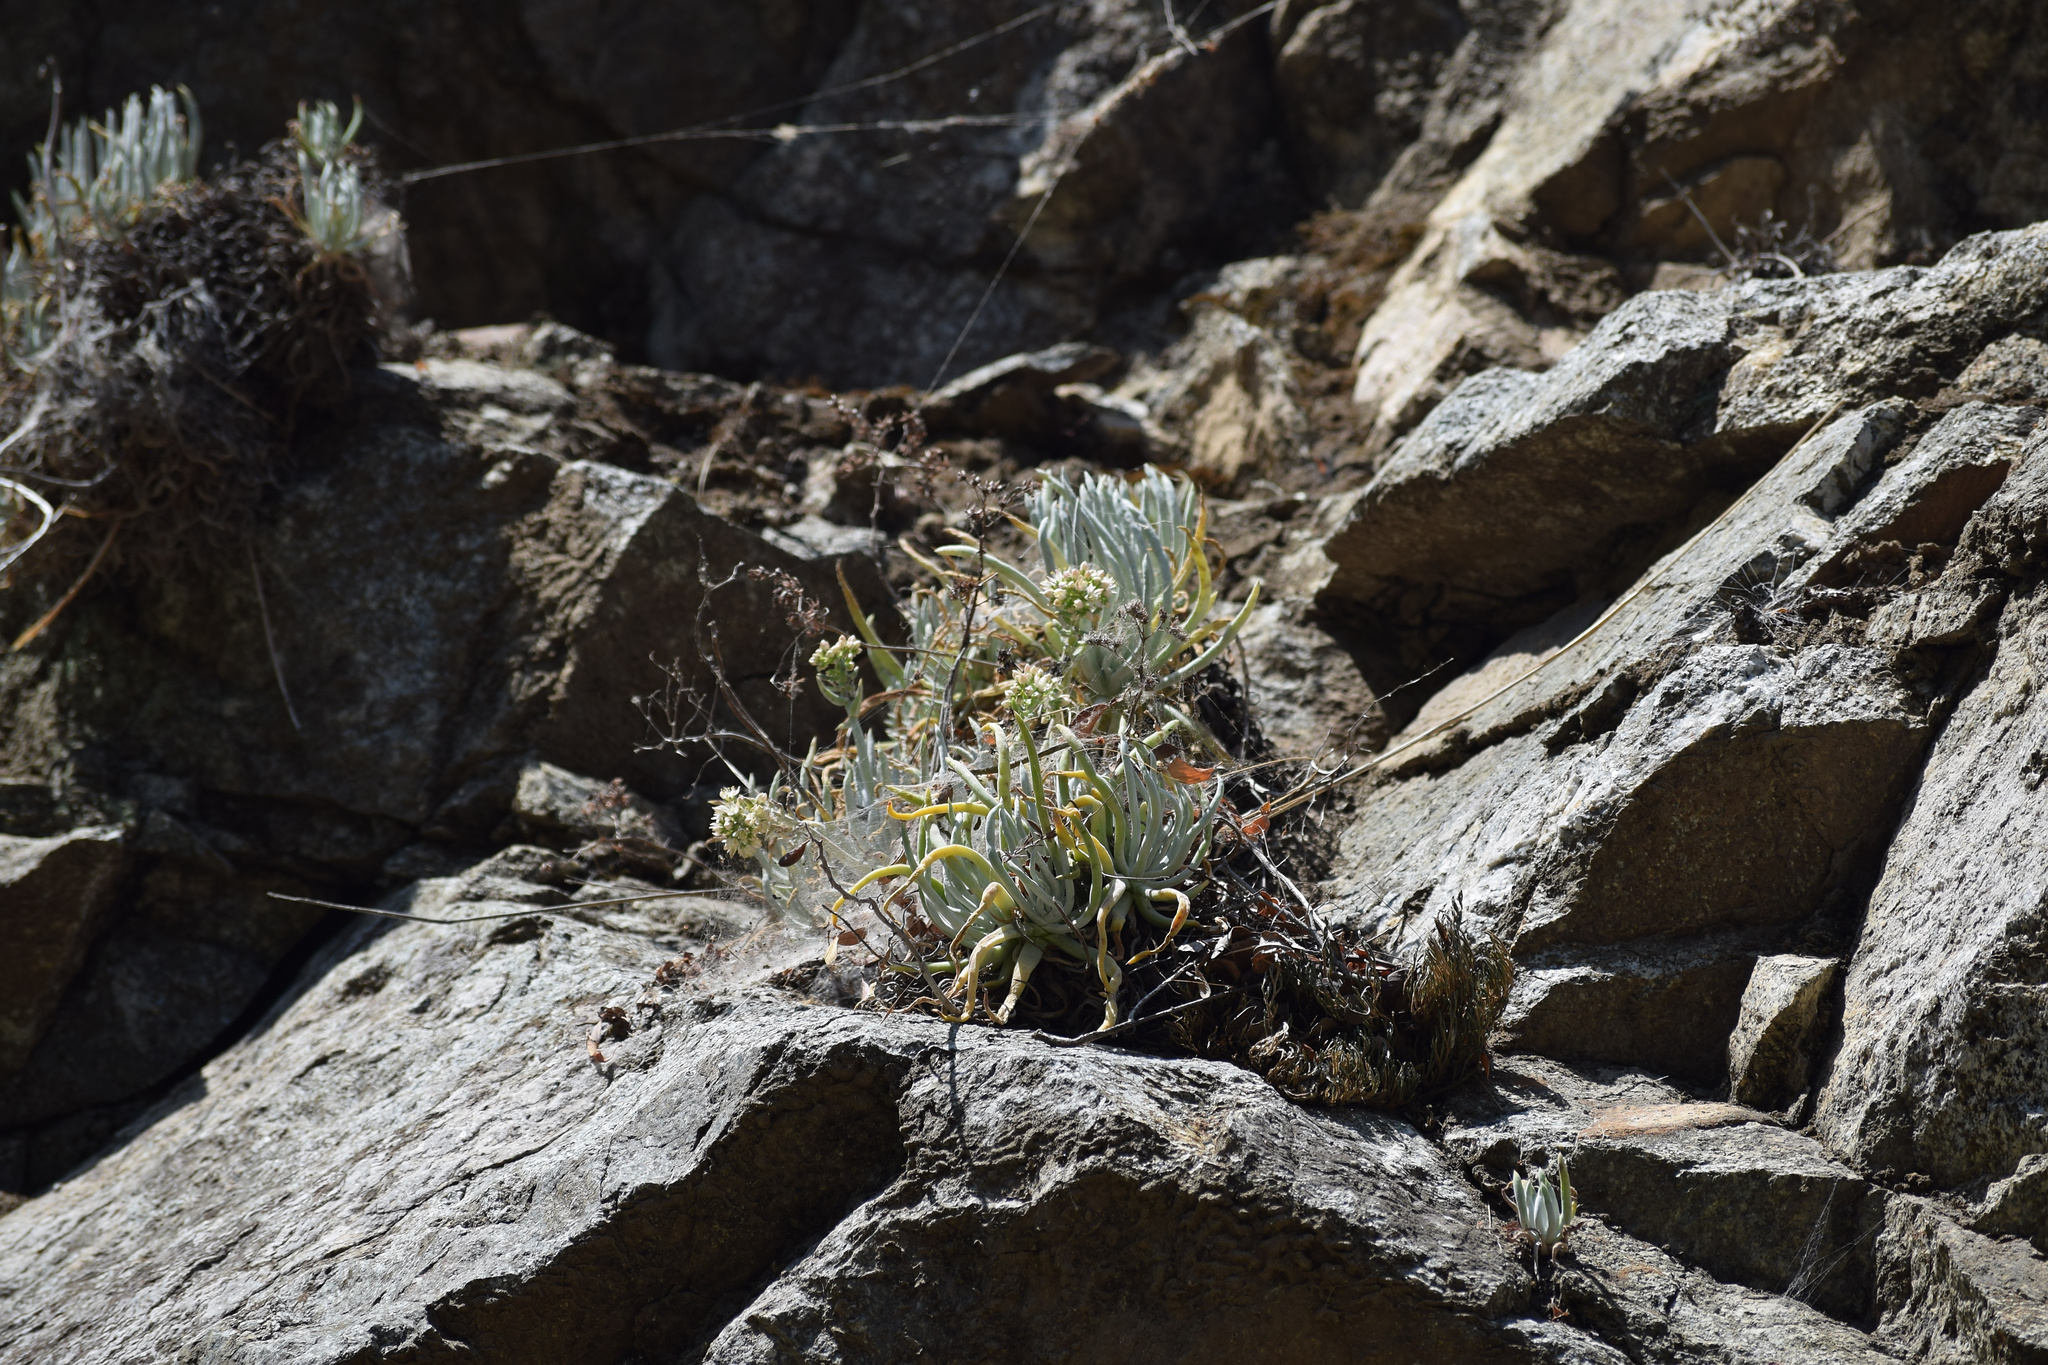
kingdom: Plantae
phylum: Tracheophyta
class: Magnoliopsida
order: Saxifragales
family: Crassulaceae
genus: Dudleya
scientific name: Dudleya densiflora
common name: San gabriel mountains dudleya
